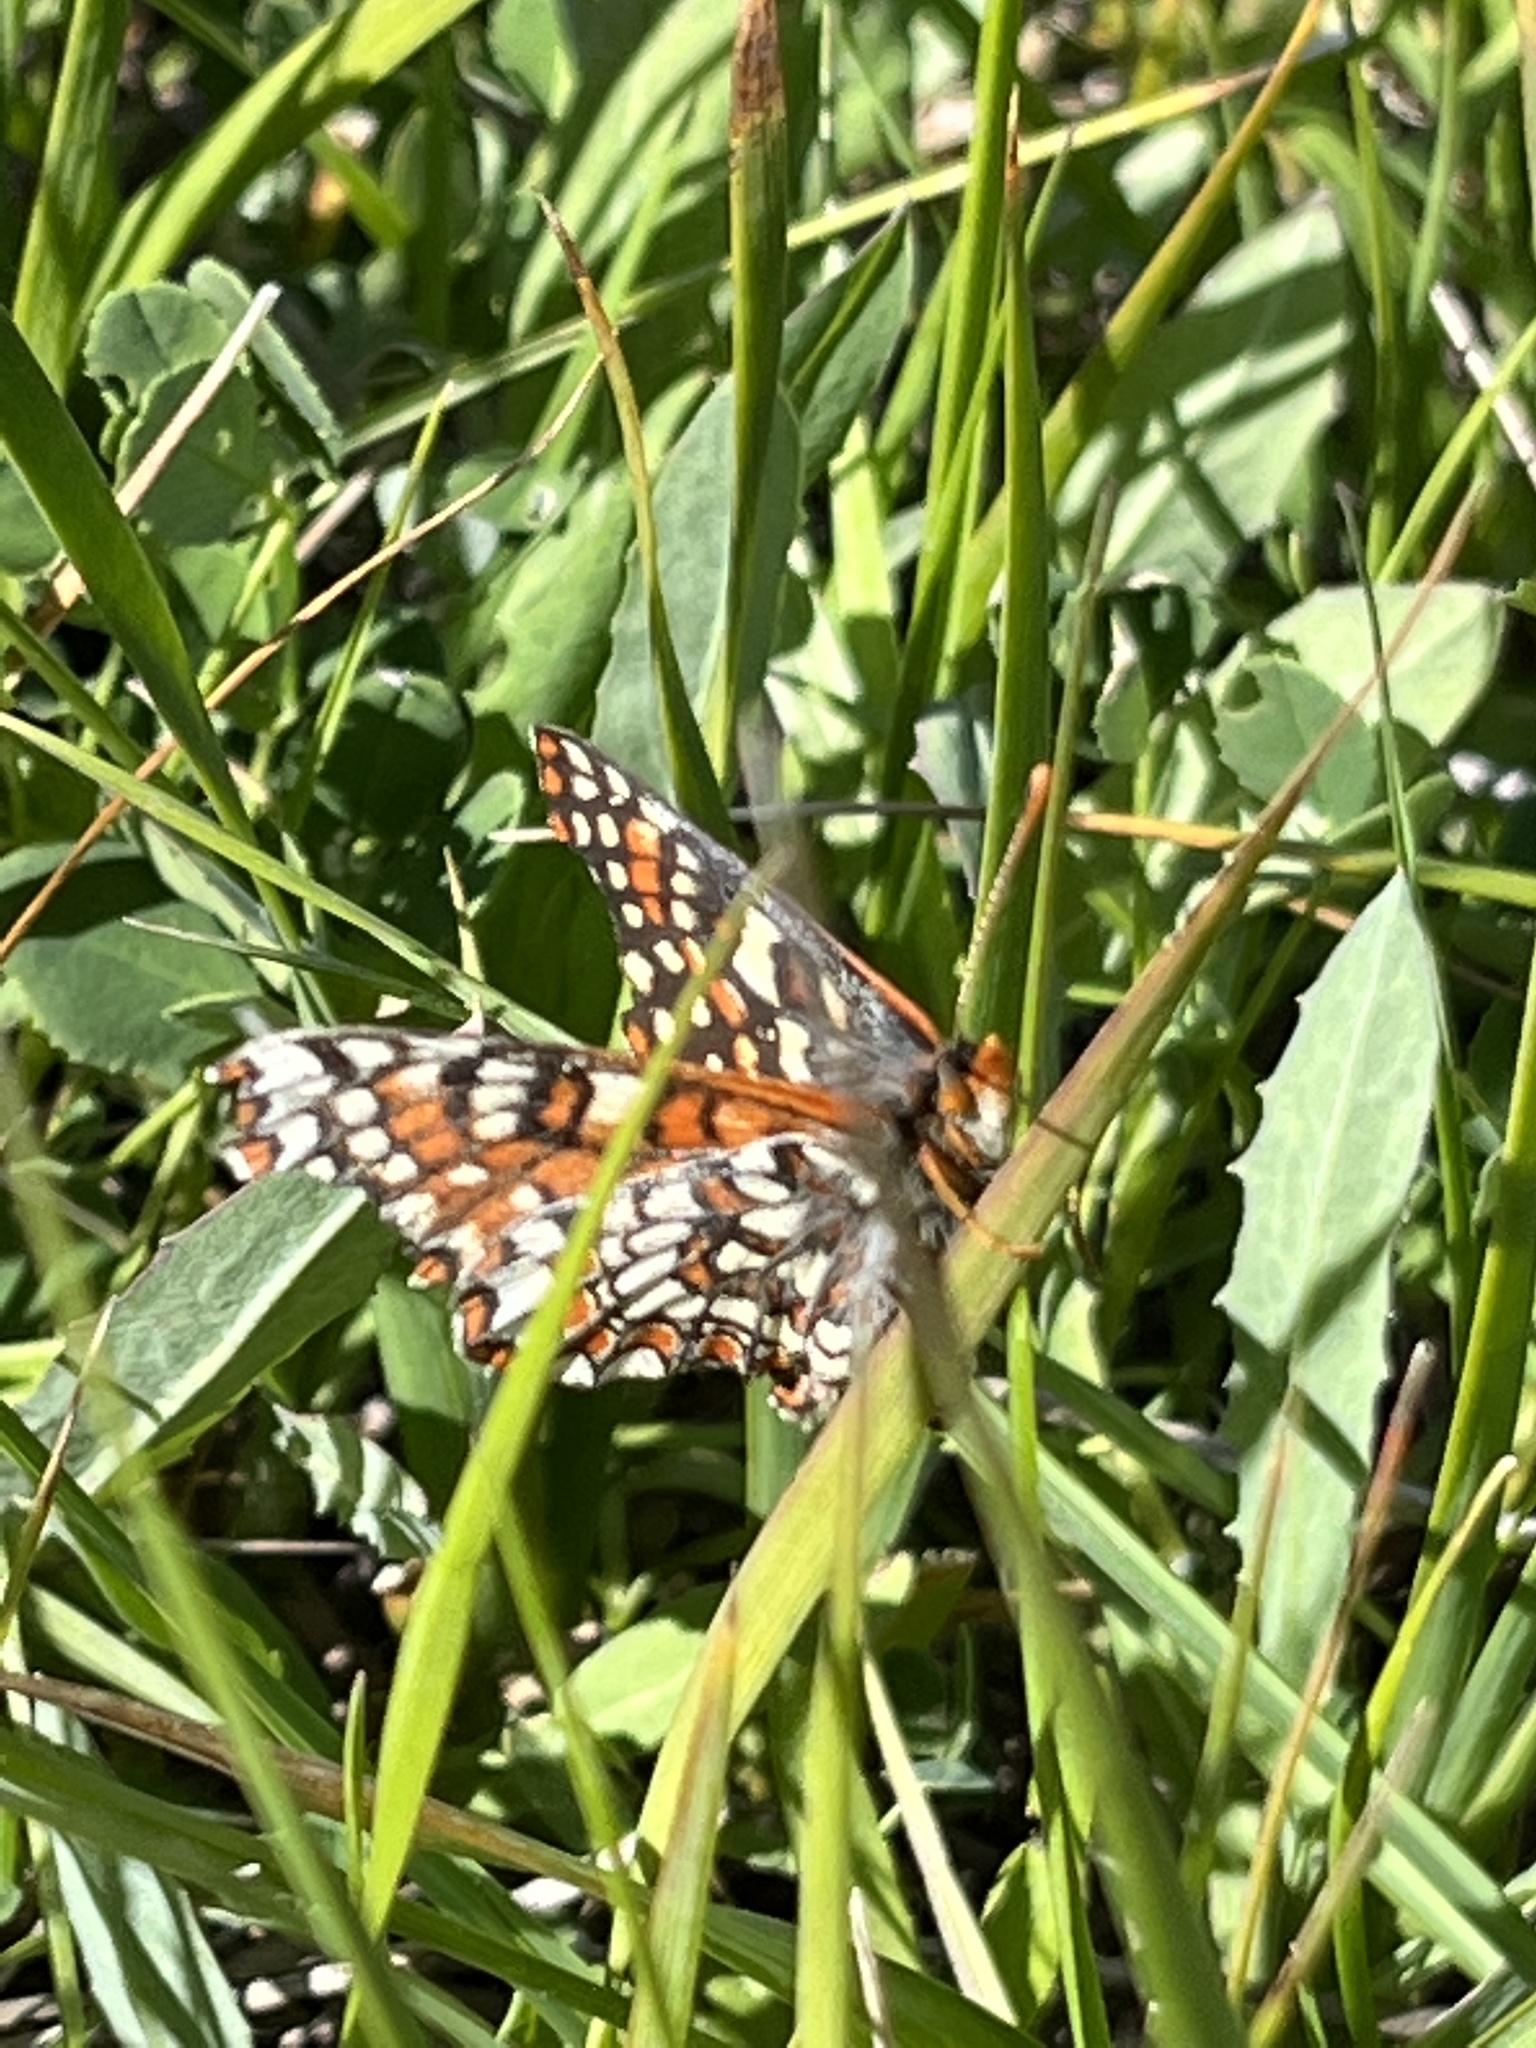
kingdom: Animalia
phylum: Arthropoda
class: Insecta
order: Lepidoptera
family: Nymphalidae
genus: Occidryas
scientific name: Occidryas editha
